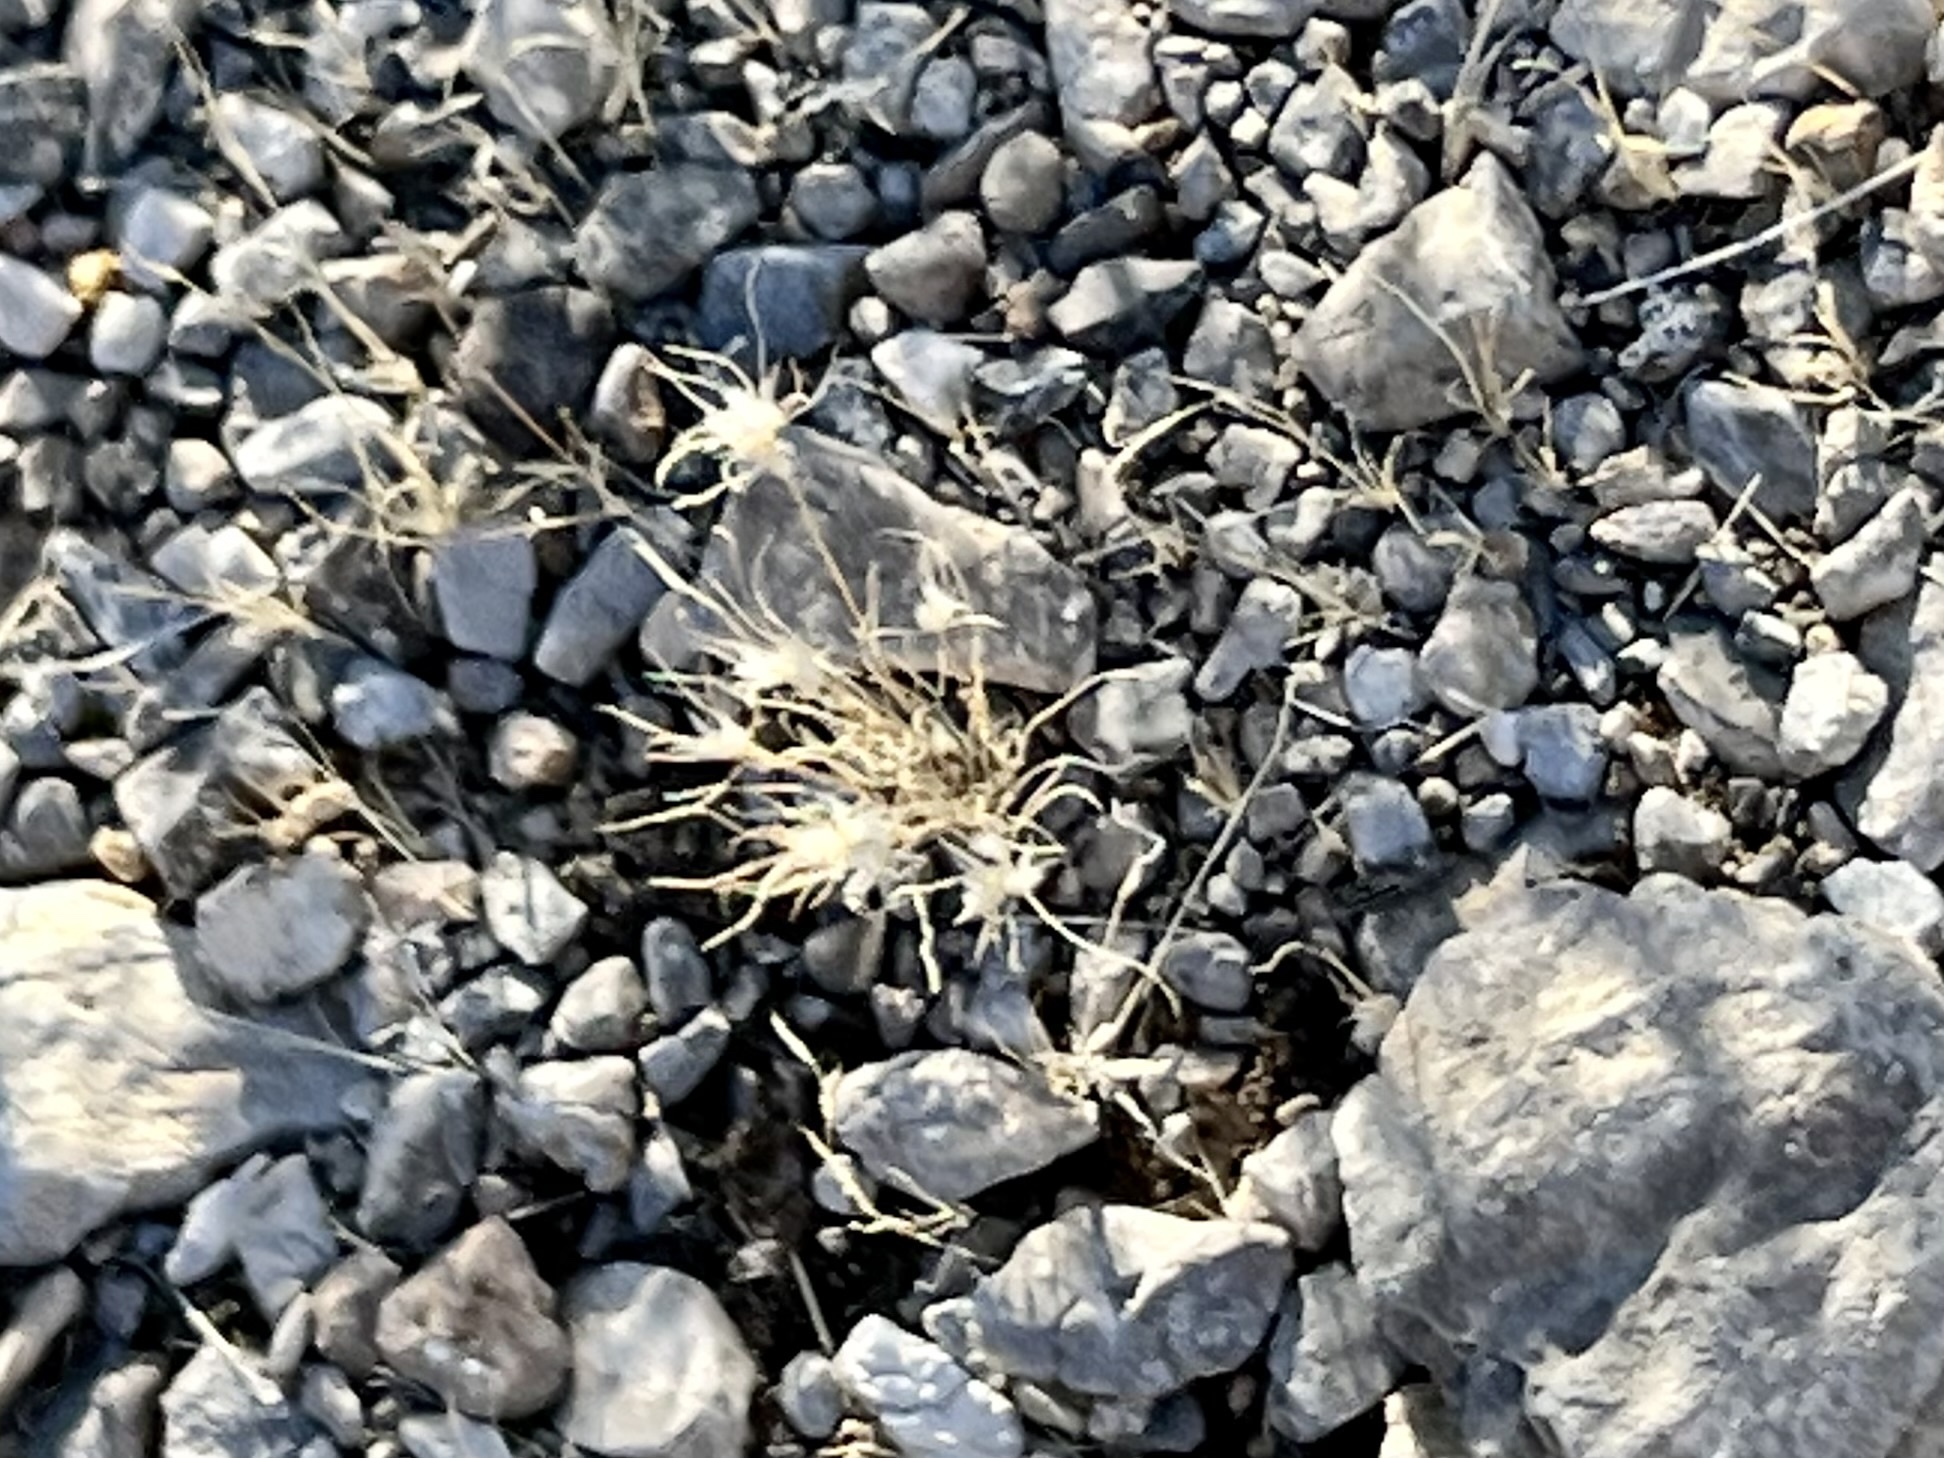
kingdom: Plantae
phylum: Tracheophyta
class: Liliopsida
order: Poales
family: Poaceae
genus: Dasyochloa
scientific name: Dasyochloa pulchella
